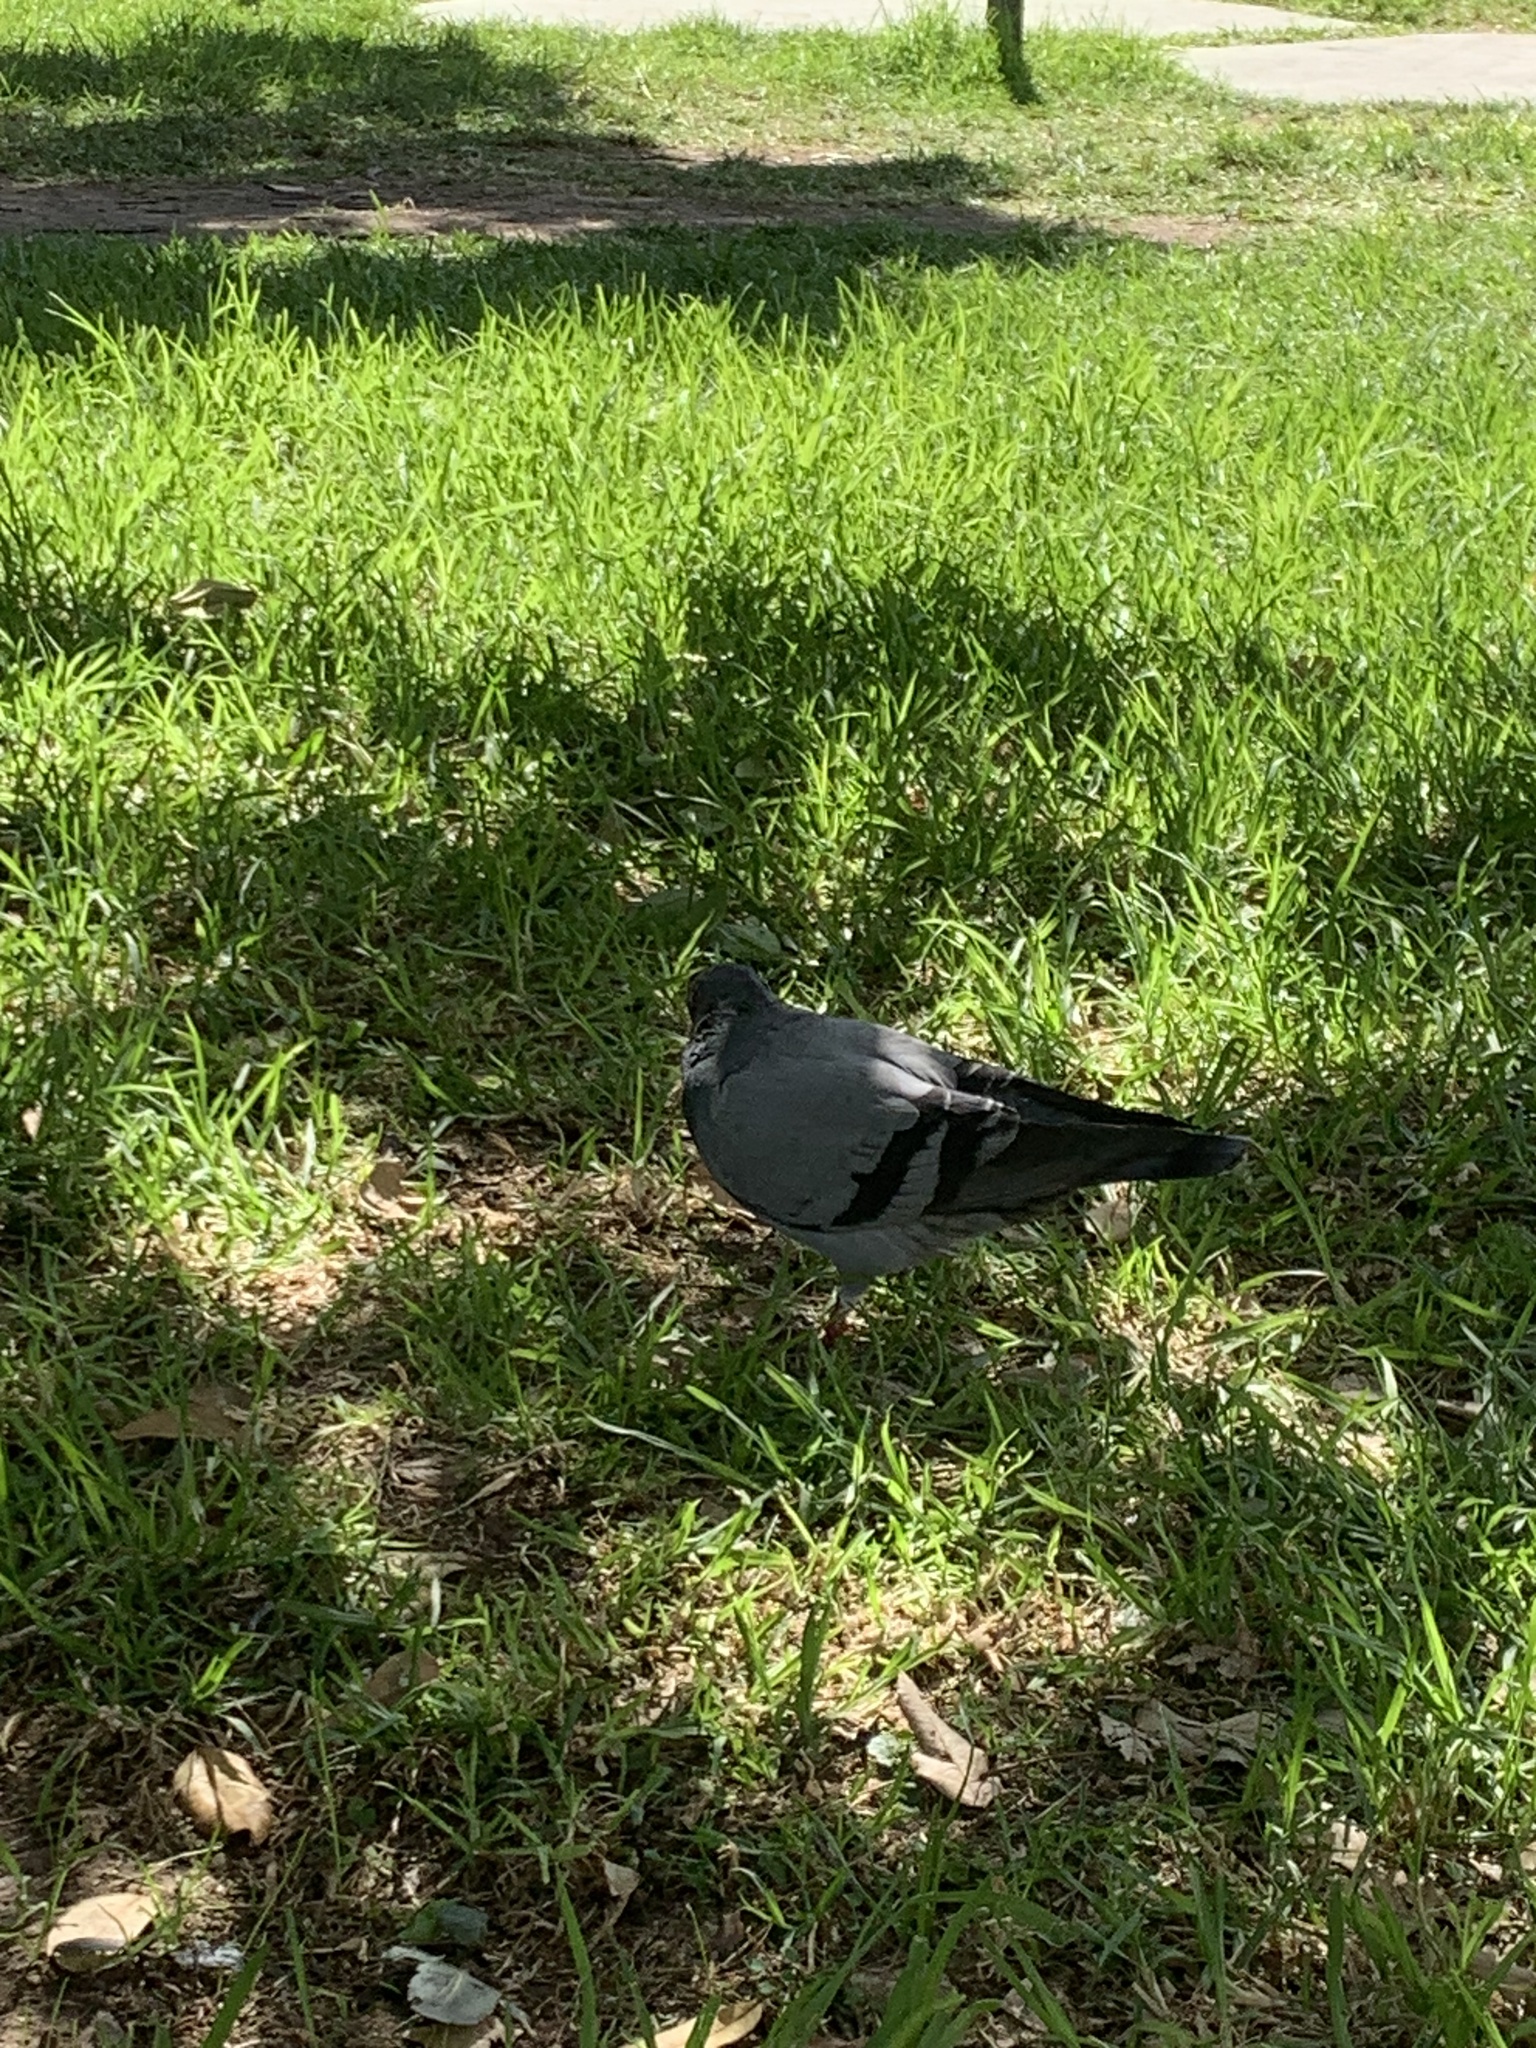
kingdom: Animalia
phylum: Chordata
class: Aves
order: Columbiformes
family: Columbidae
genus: Columba
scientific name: Columba livia
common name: Rock pigeon
